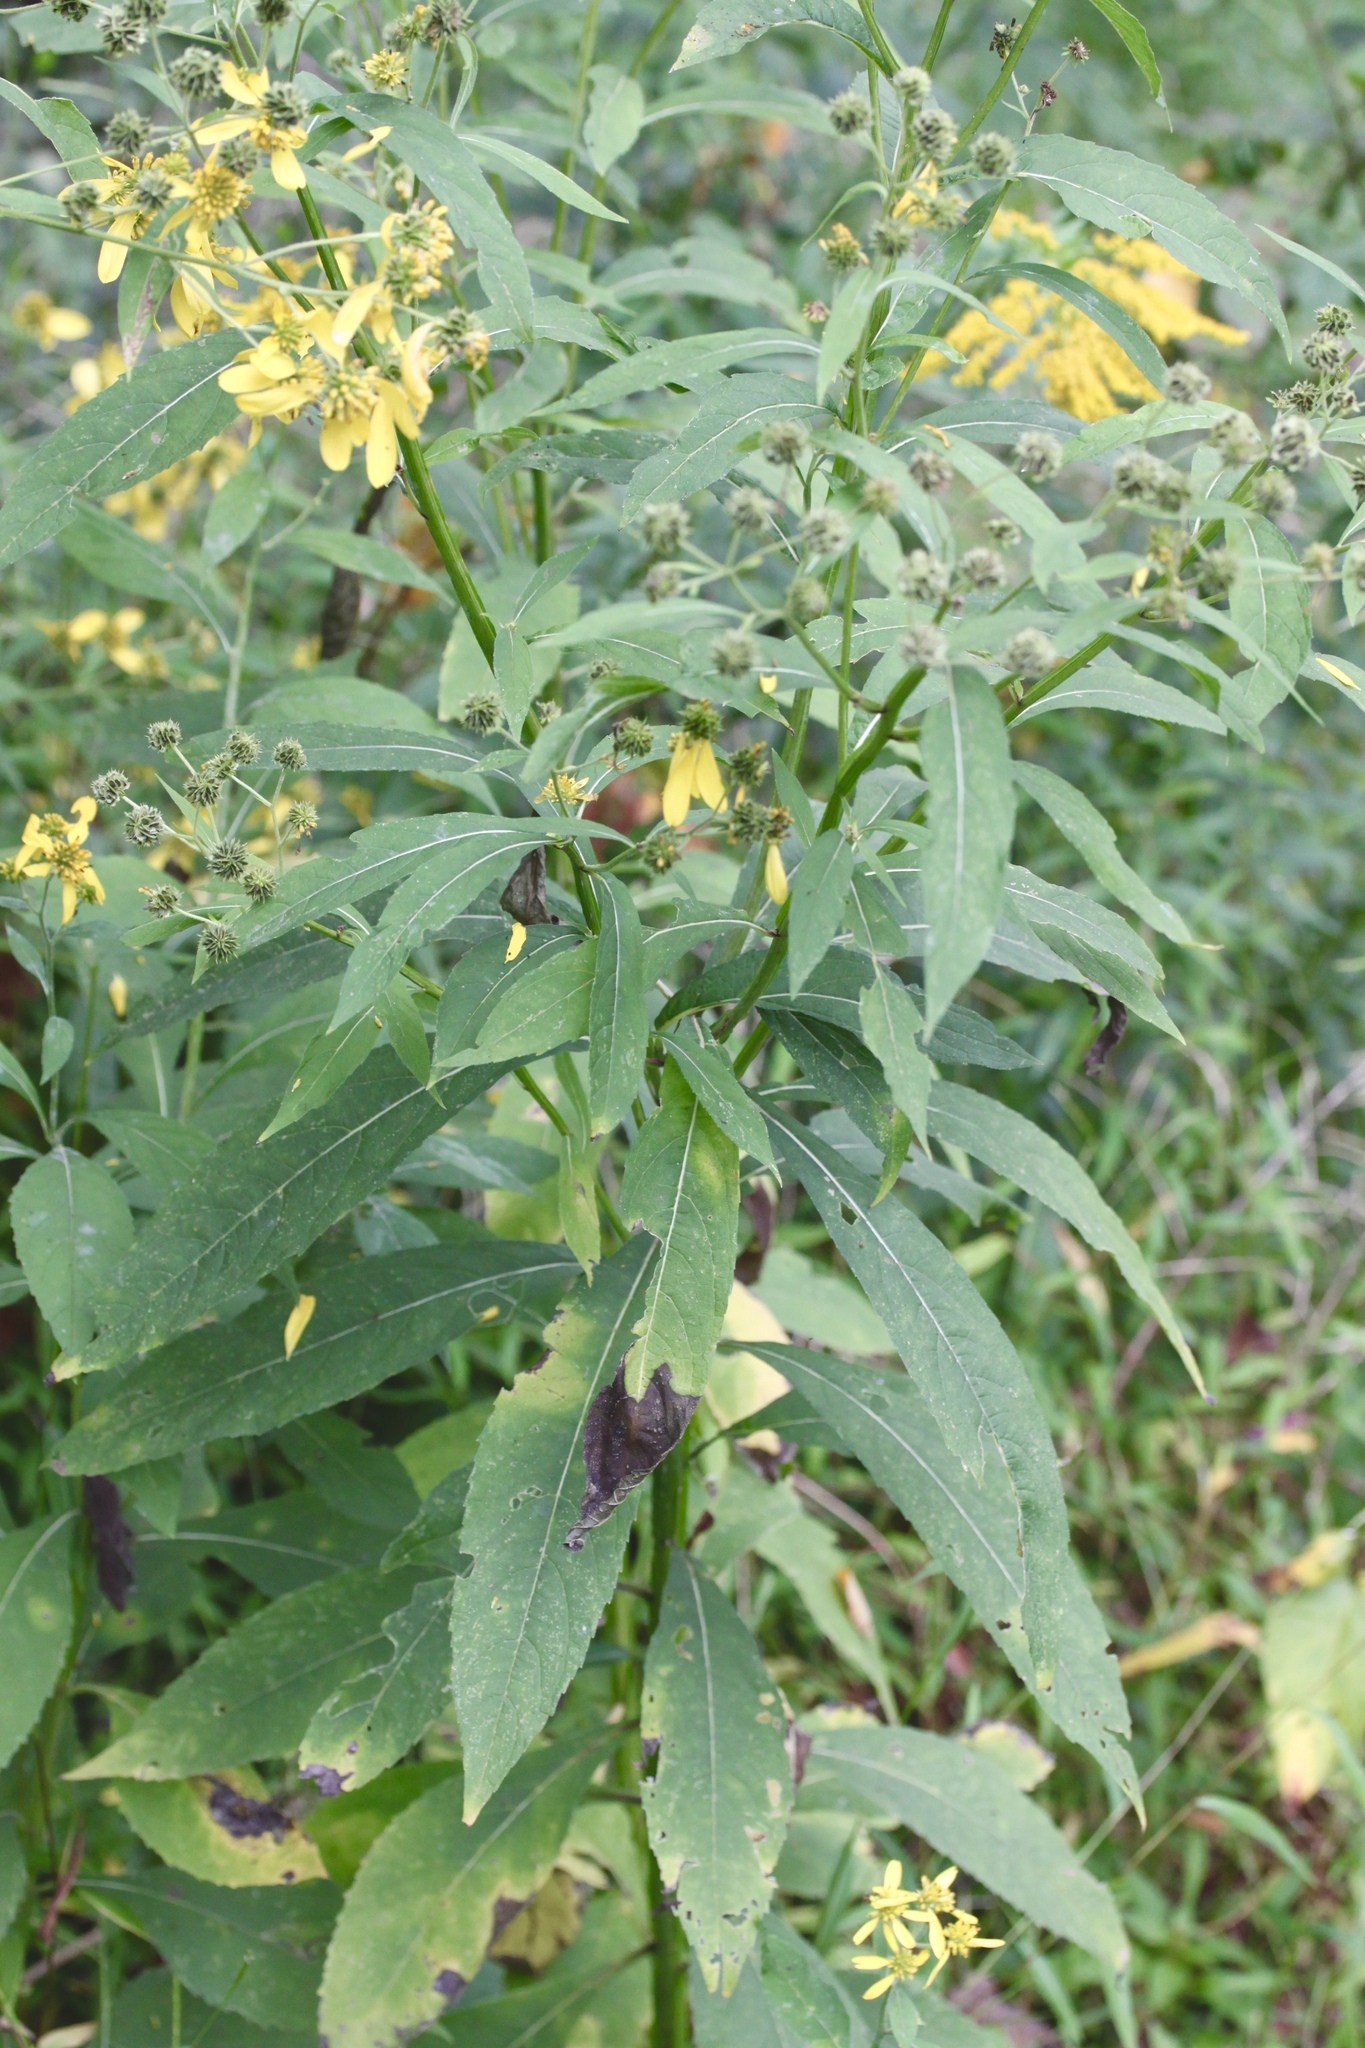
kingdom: Plantae
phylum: Tracheophyta
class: Magnoliopsida
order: Asterales
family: Asteraceae
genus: Verbesina
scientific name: Verbesina alternifolia
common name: Wingstem
